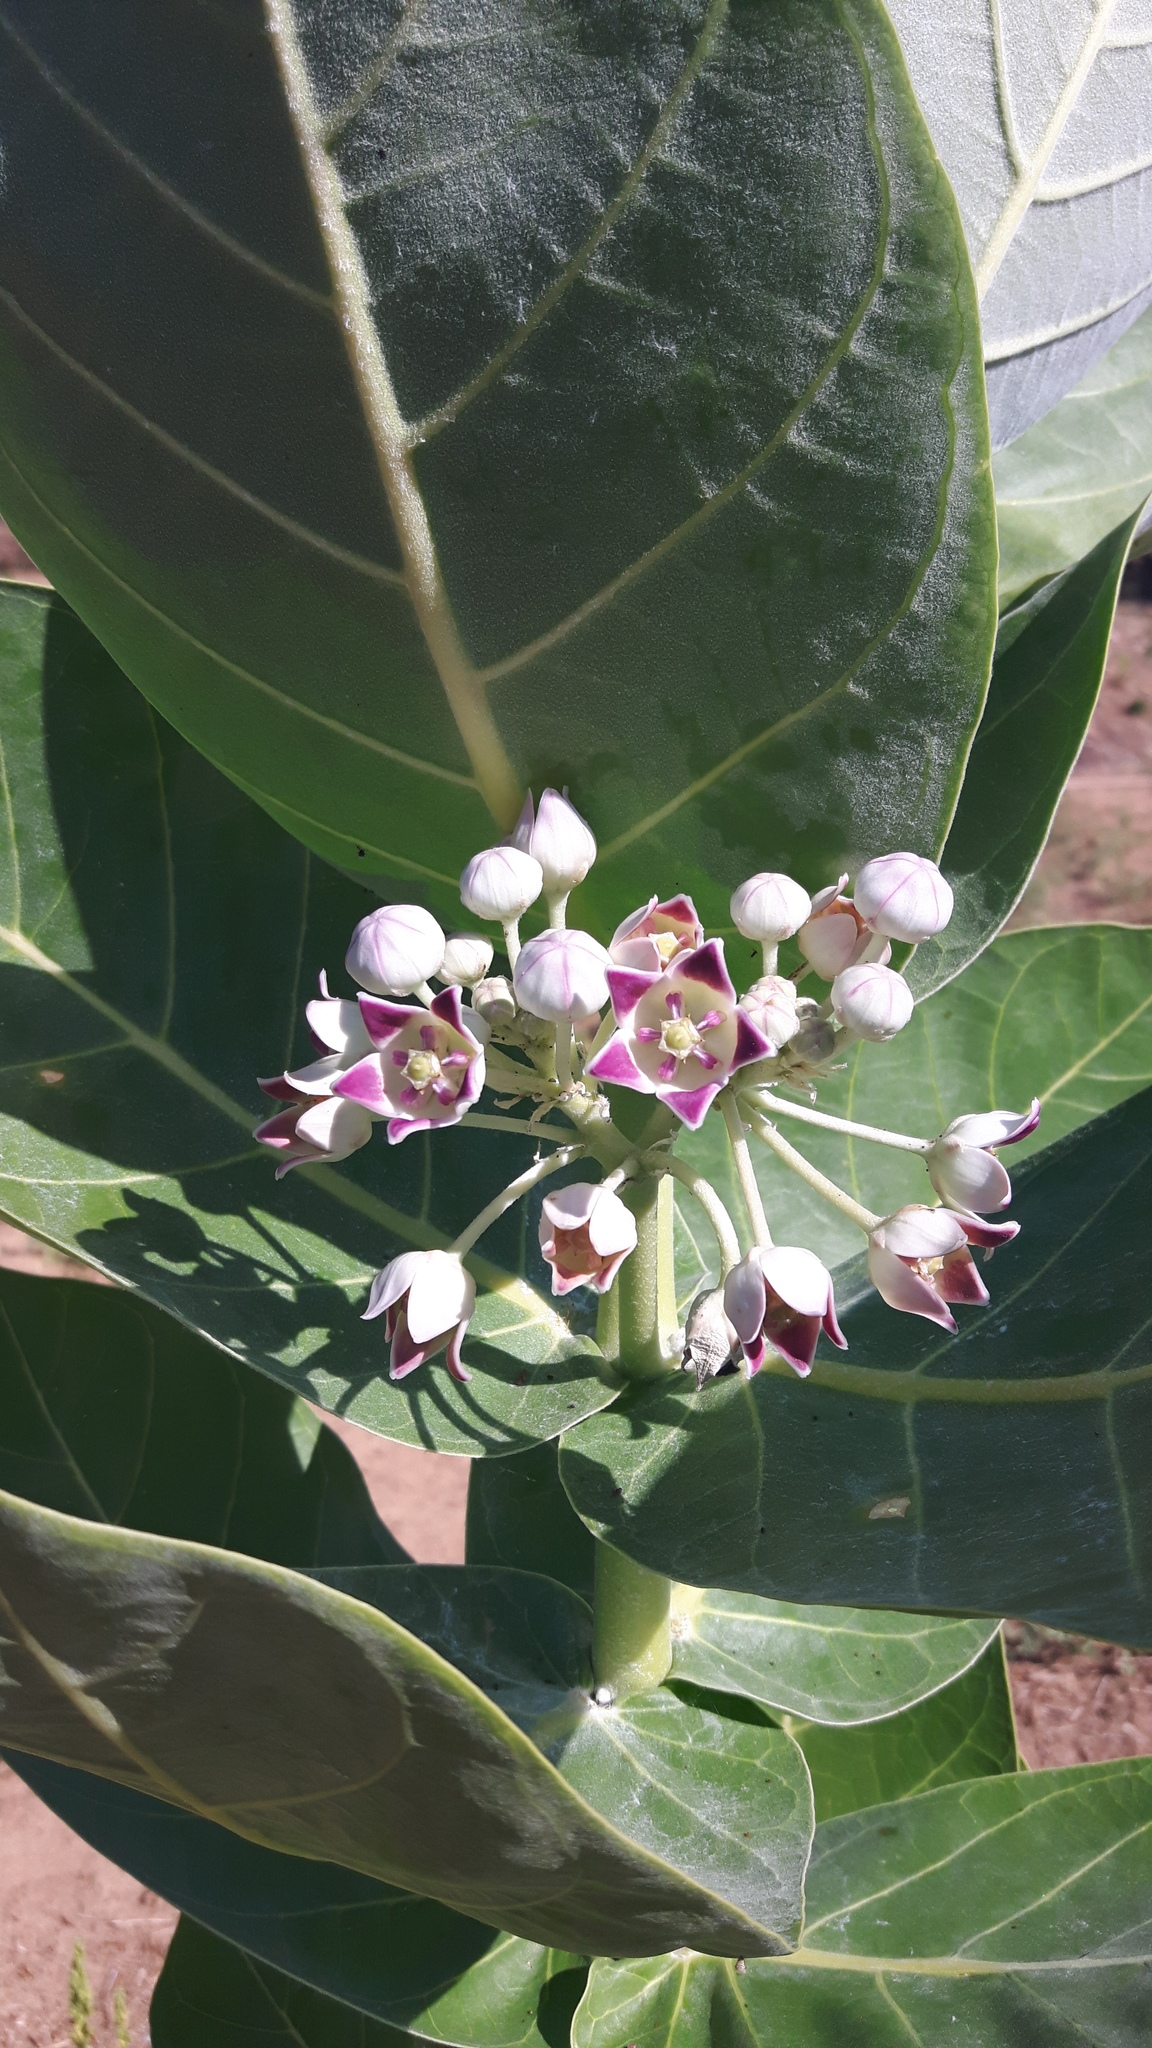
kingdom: Plantae
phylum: Tracheophyta
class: Magnoliopsida
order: Gentianales
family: Apocynaceae
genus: Calotropis
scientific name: Calotropis procera
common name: Roostertree
